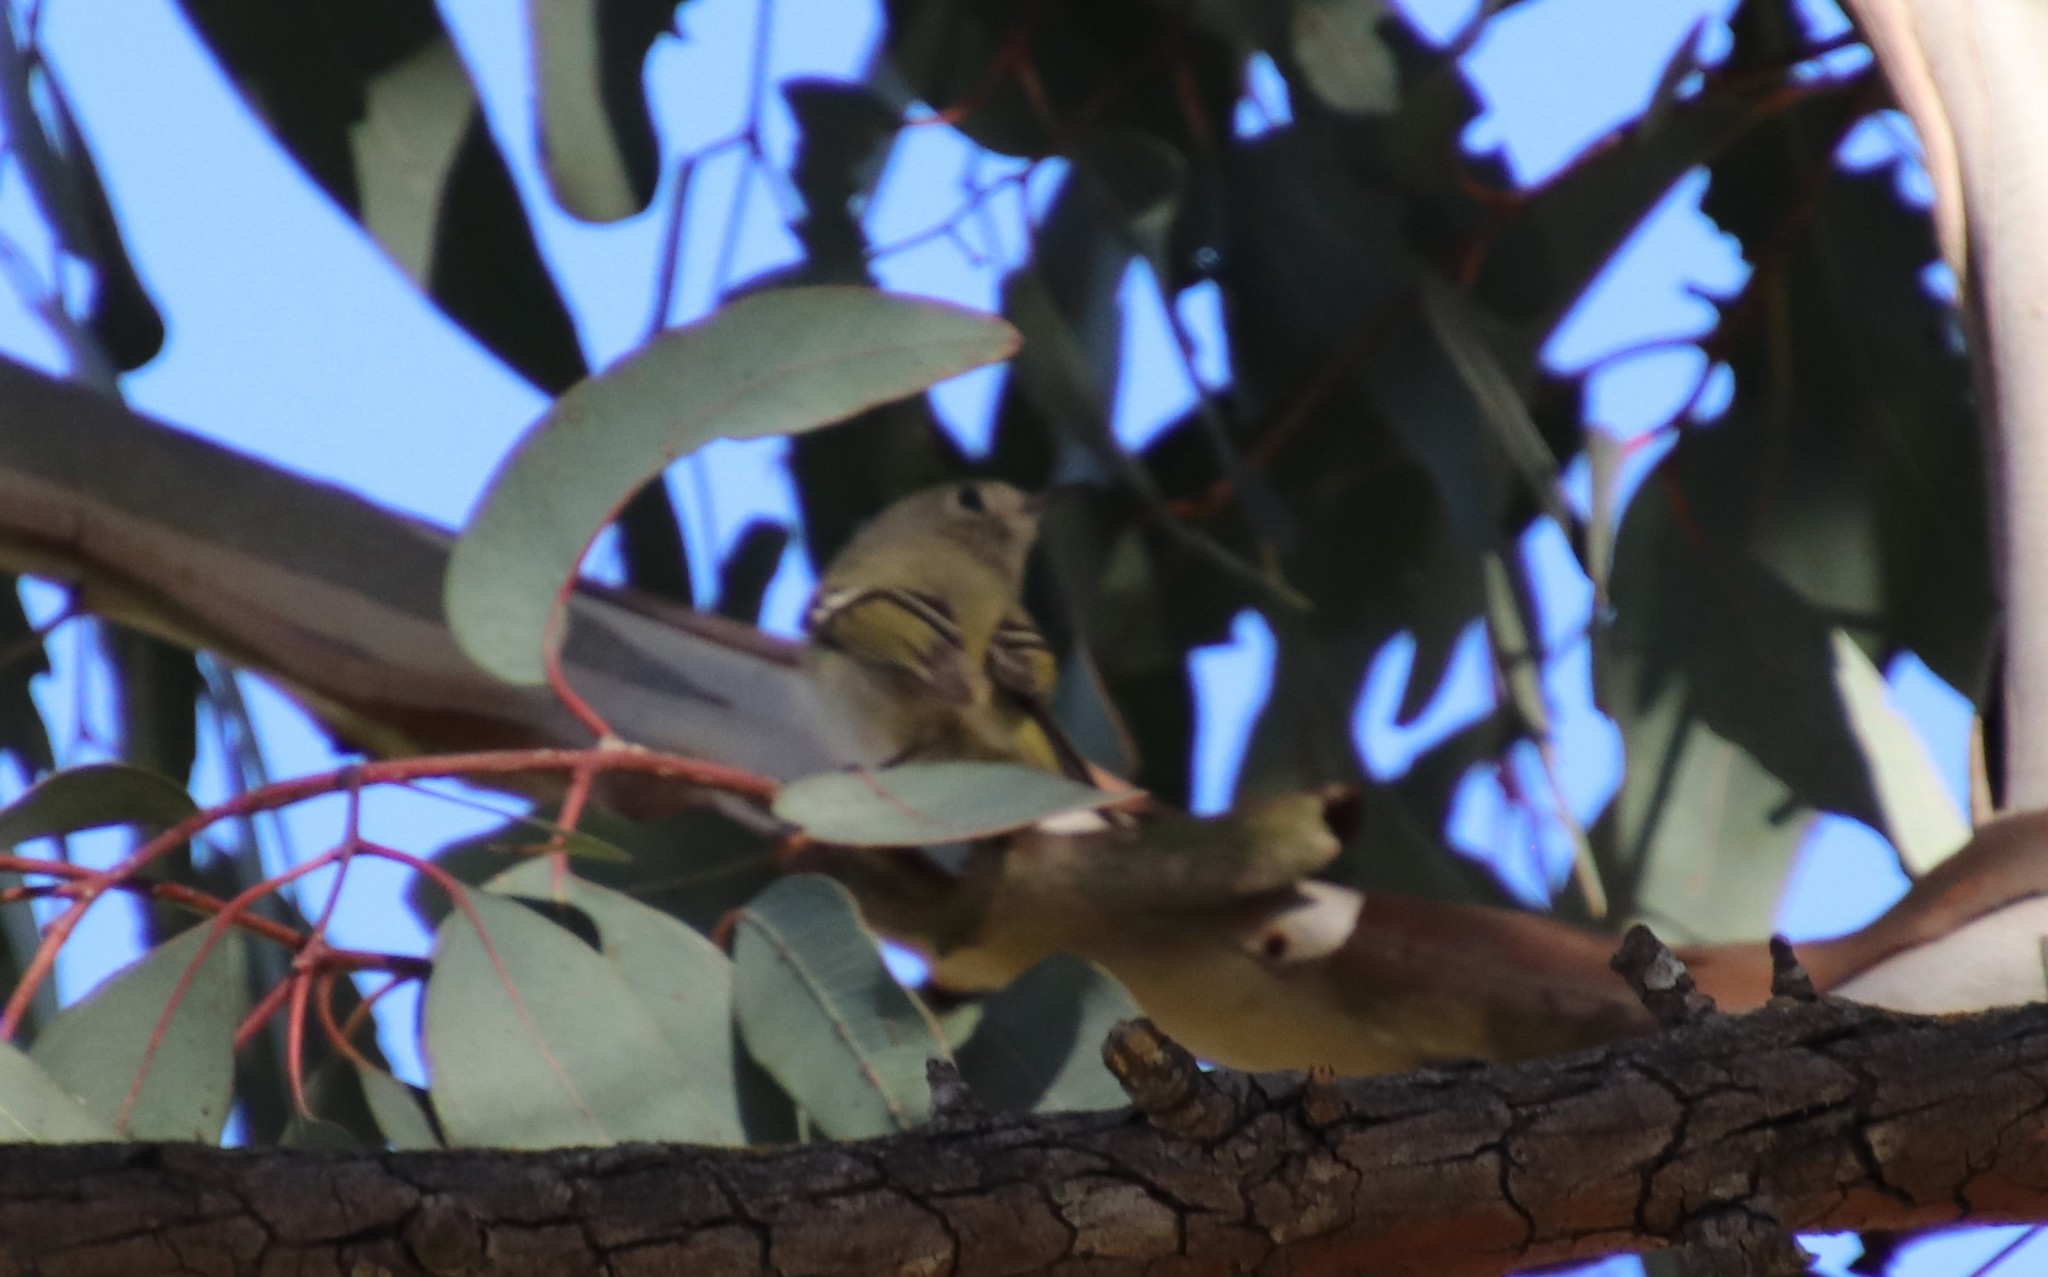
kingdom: Animalia
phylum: Chordata
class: Aves
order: Passeriformes
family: Regulidae
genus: Regulus
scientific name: Regulus calendula
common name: Ruby-crowned kinglet
